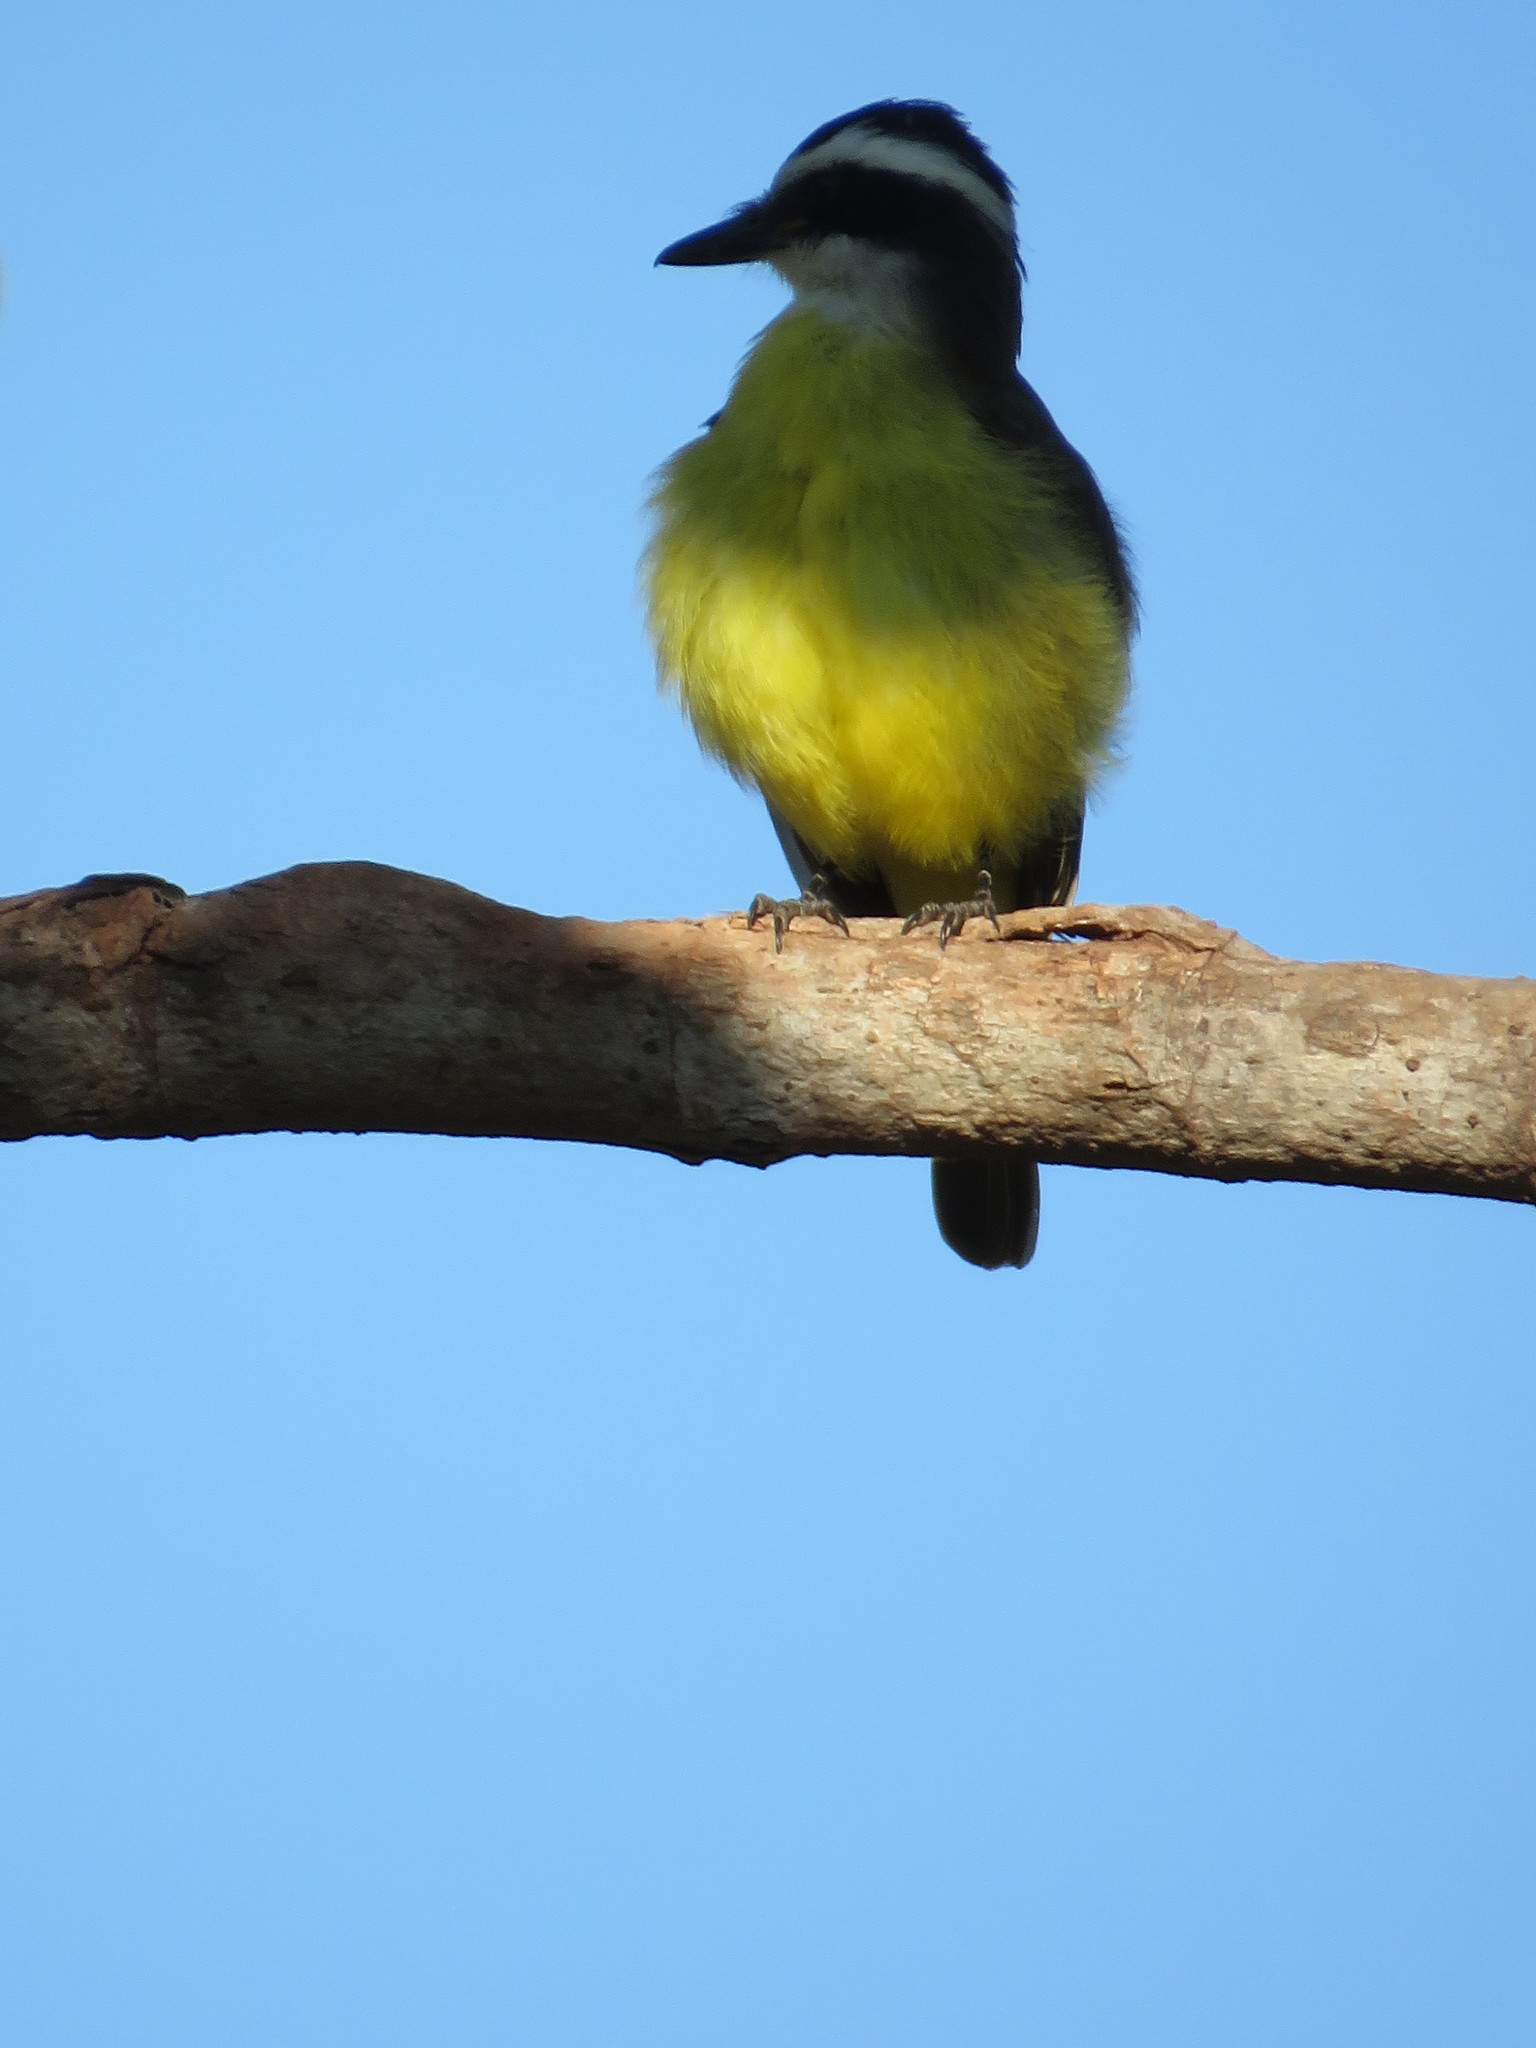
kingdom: Animalia
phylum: Chordata
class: Aves
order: Passeriformes
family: Tyrannidae
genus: Pitangus
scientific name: Pitangus lictor
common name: Lesser kiskadee
